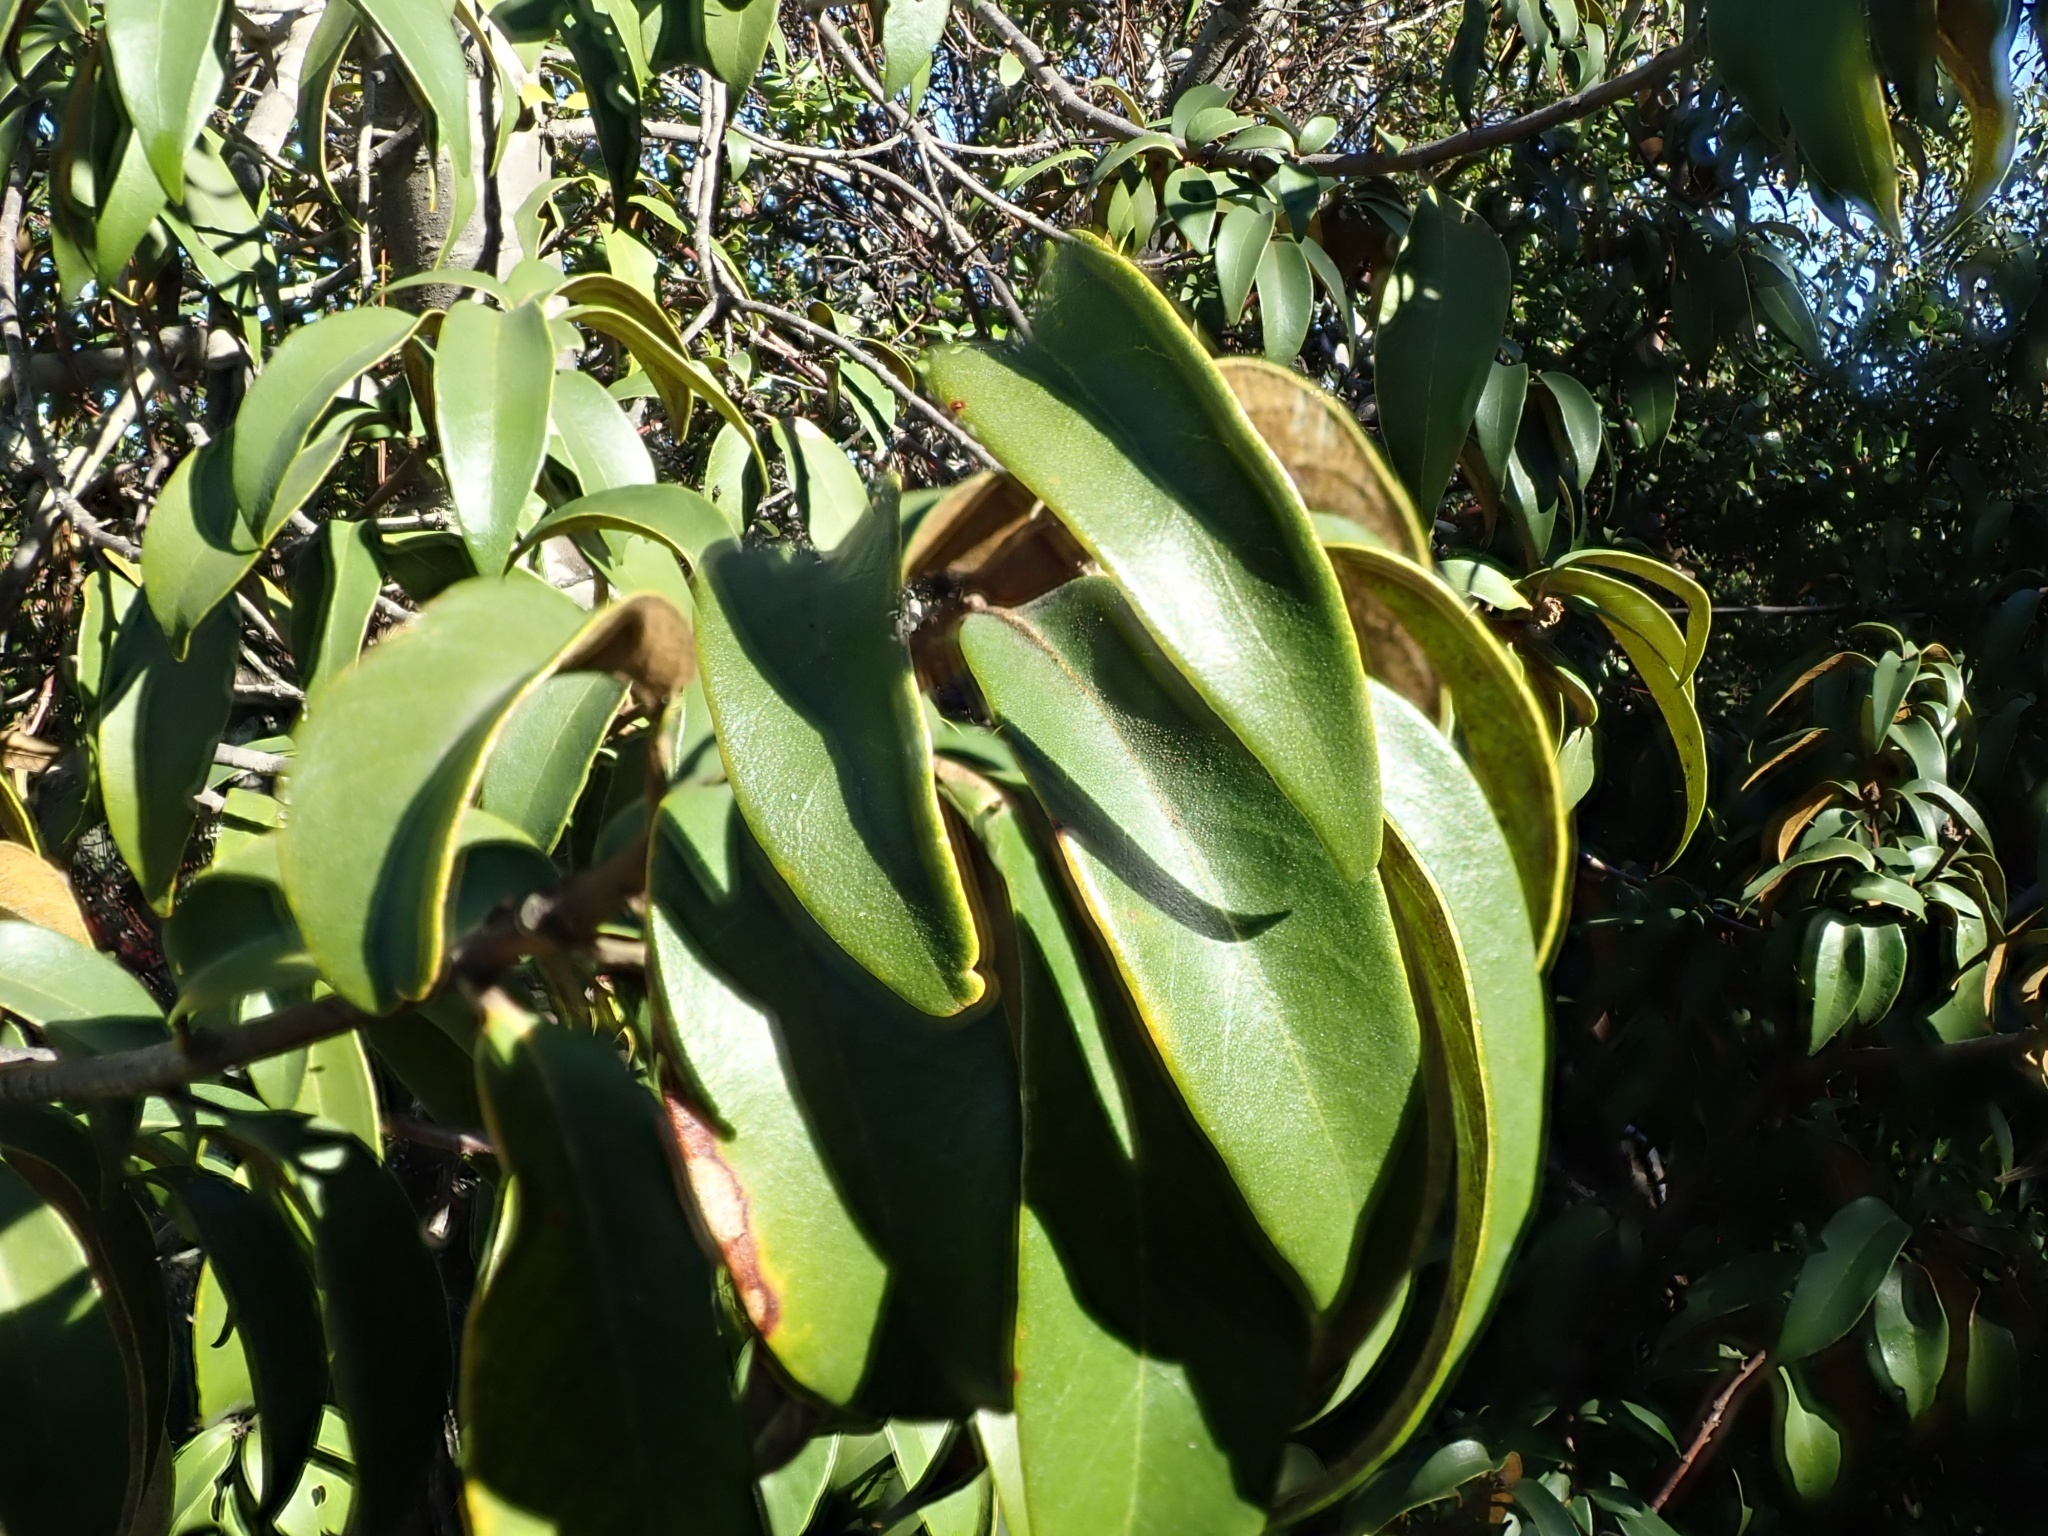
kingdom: Plantae
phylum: Tracheophyta
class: Magnoliopsida
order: Fagales
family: Fagaceae
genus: Chrysolepis
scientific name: Chrysolepis chrysophylla
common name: Giant chinquapin
